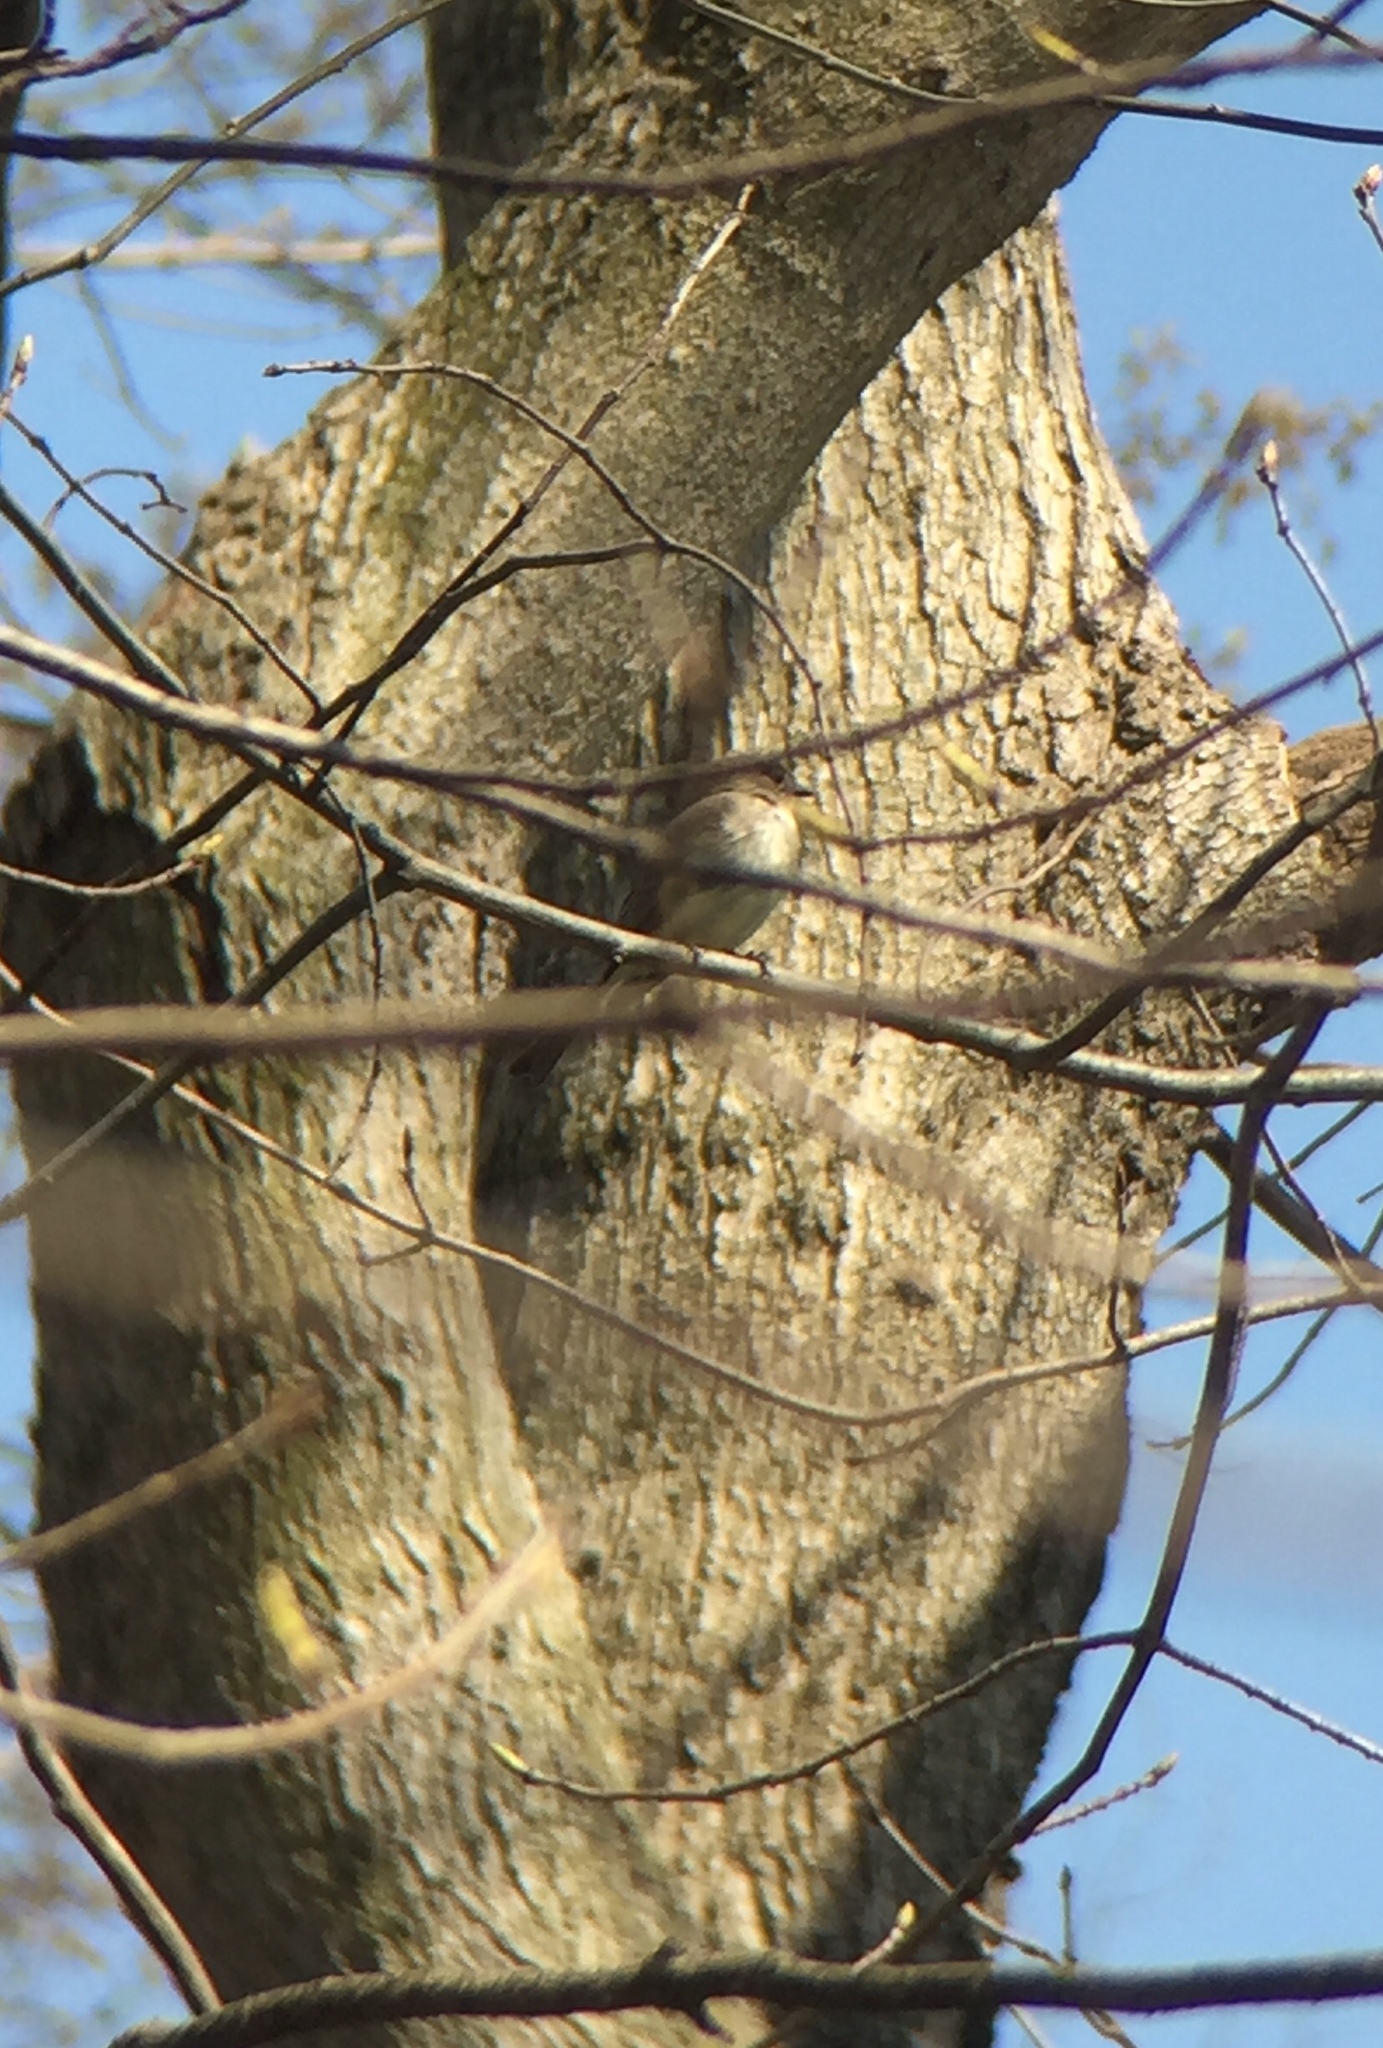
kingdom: Animalia
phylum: Chordata
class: Aves
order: Passeriformes
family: Tyrannidae
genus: Sayornis
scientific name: Sayornis phoebe
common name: Eastern phoebe
